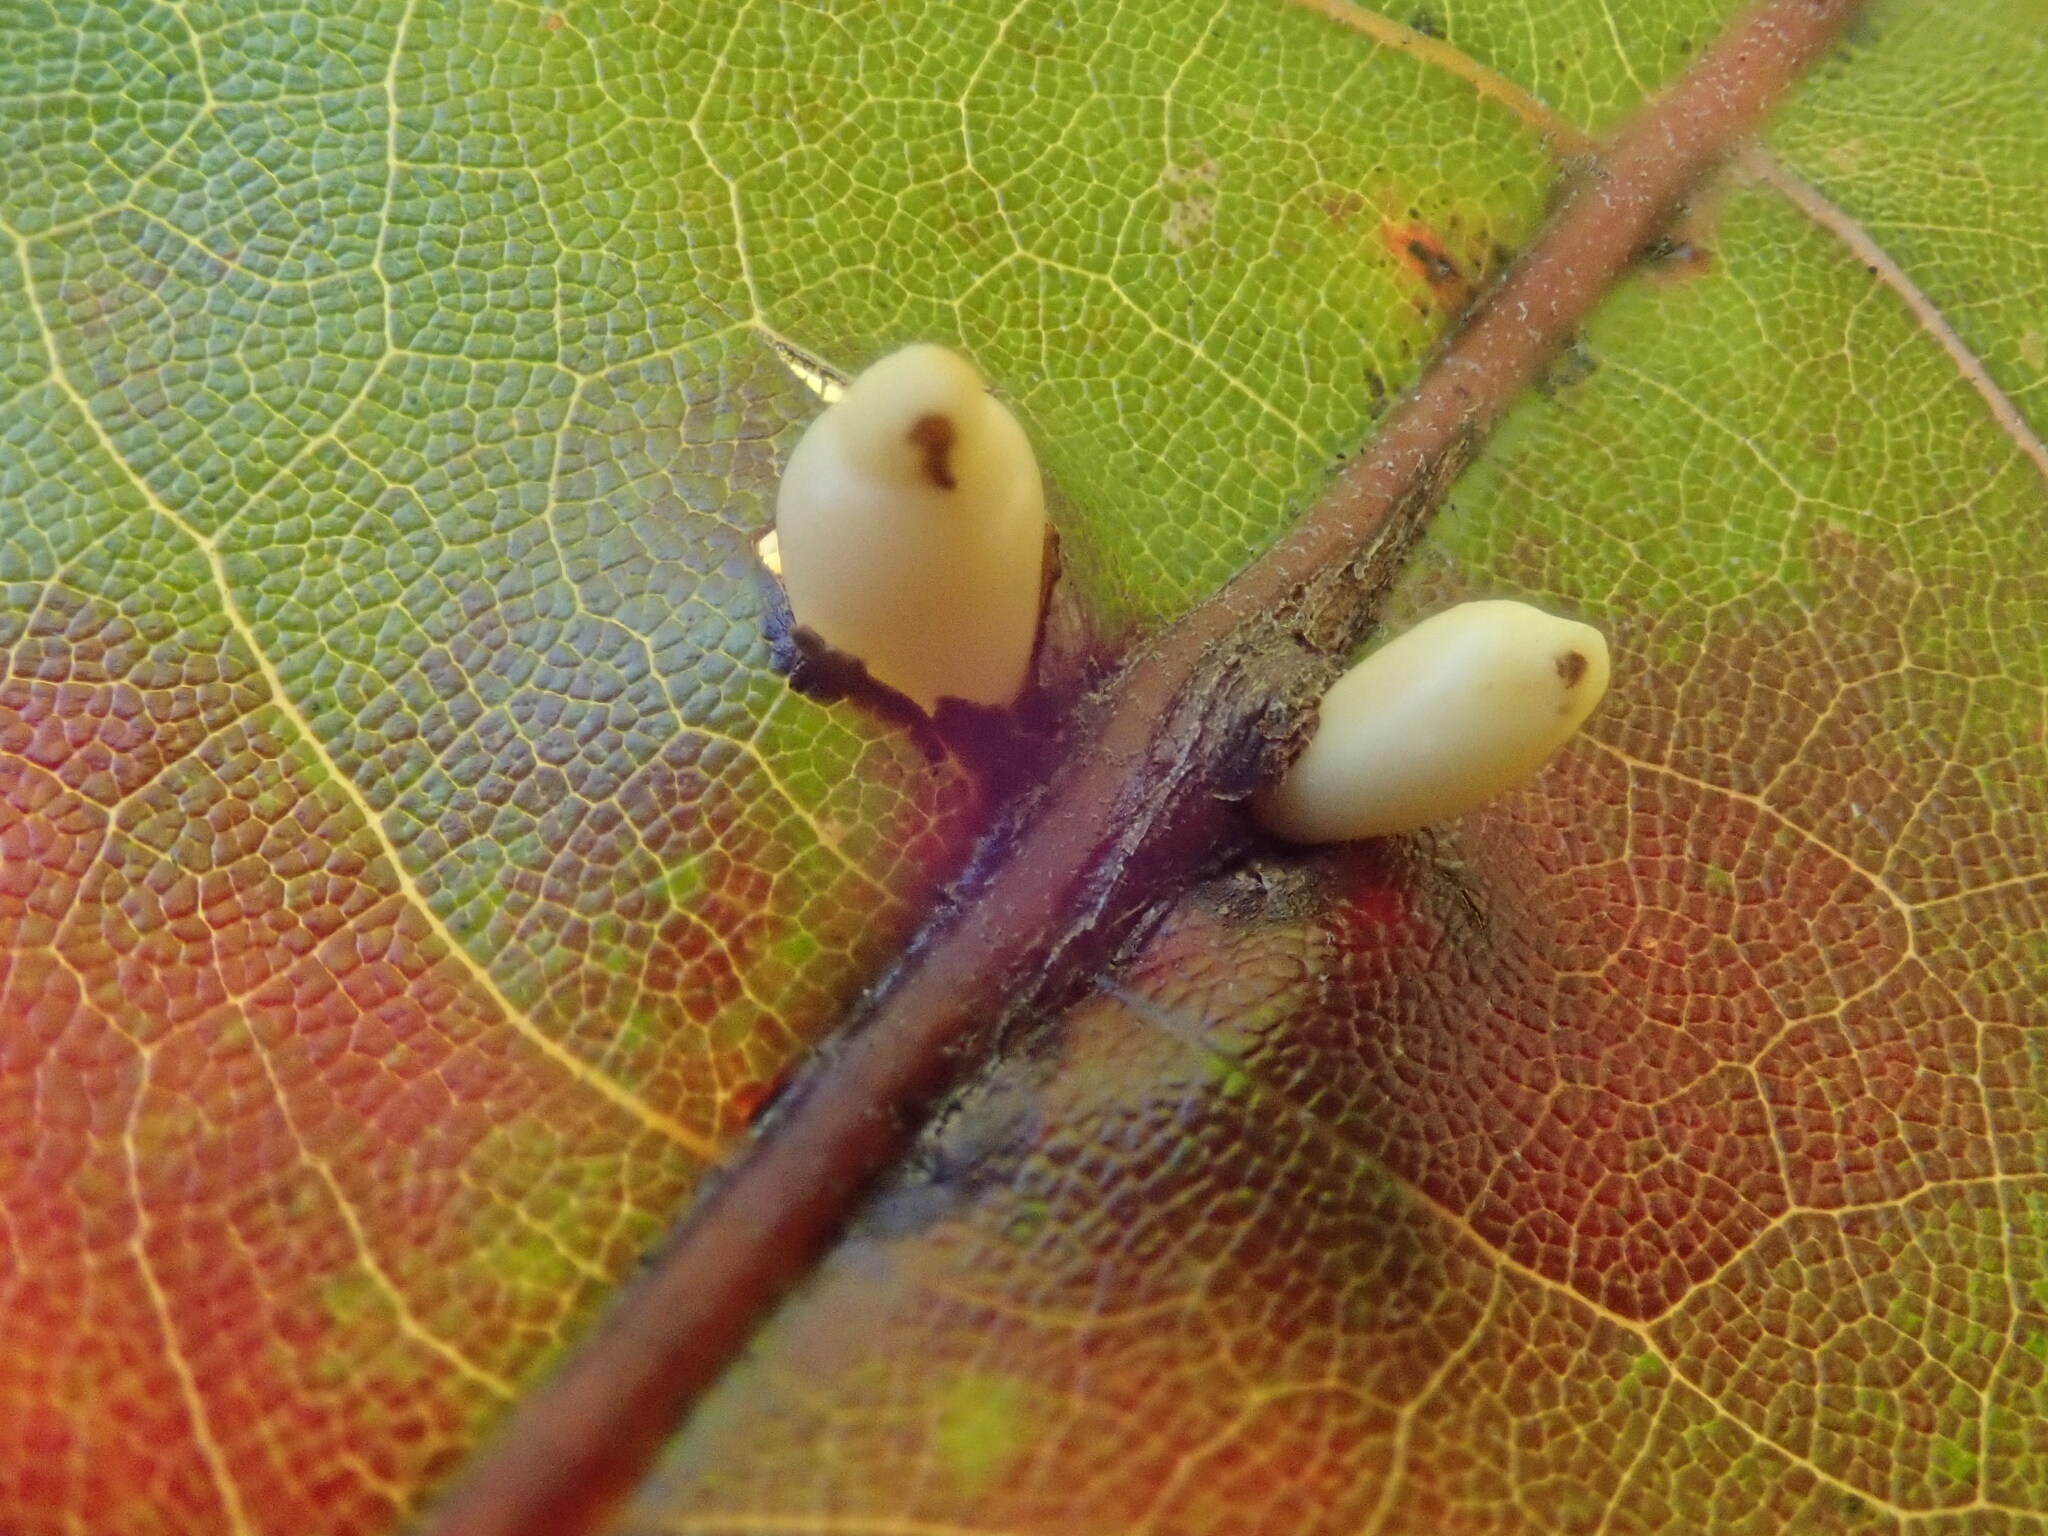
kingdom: Animalia
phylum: Arthropoda
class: Insecta
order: Hymenoptera
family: Cynipidae
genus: Kokkocynips
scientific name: Kokkocynips decidua
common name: Oak wheat gall
